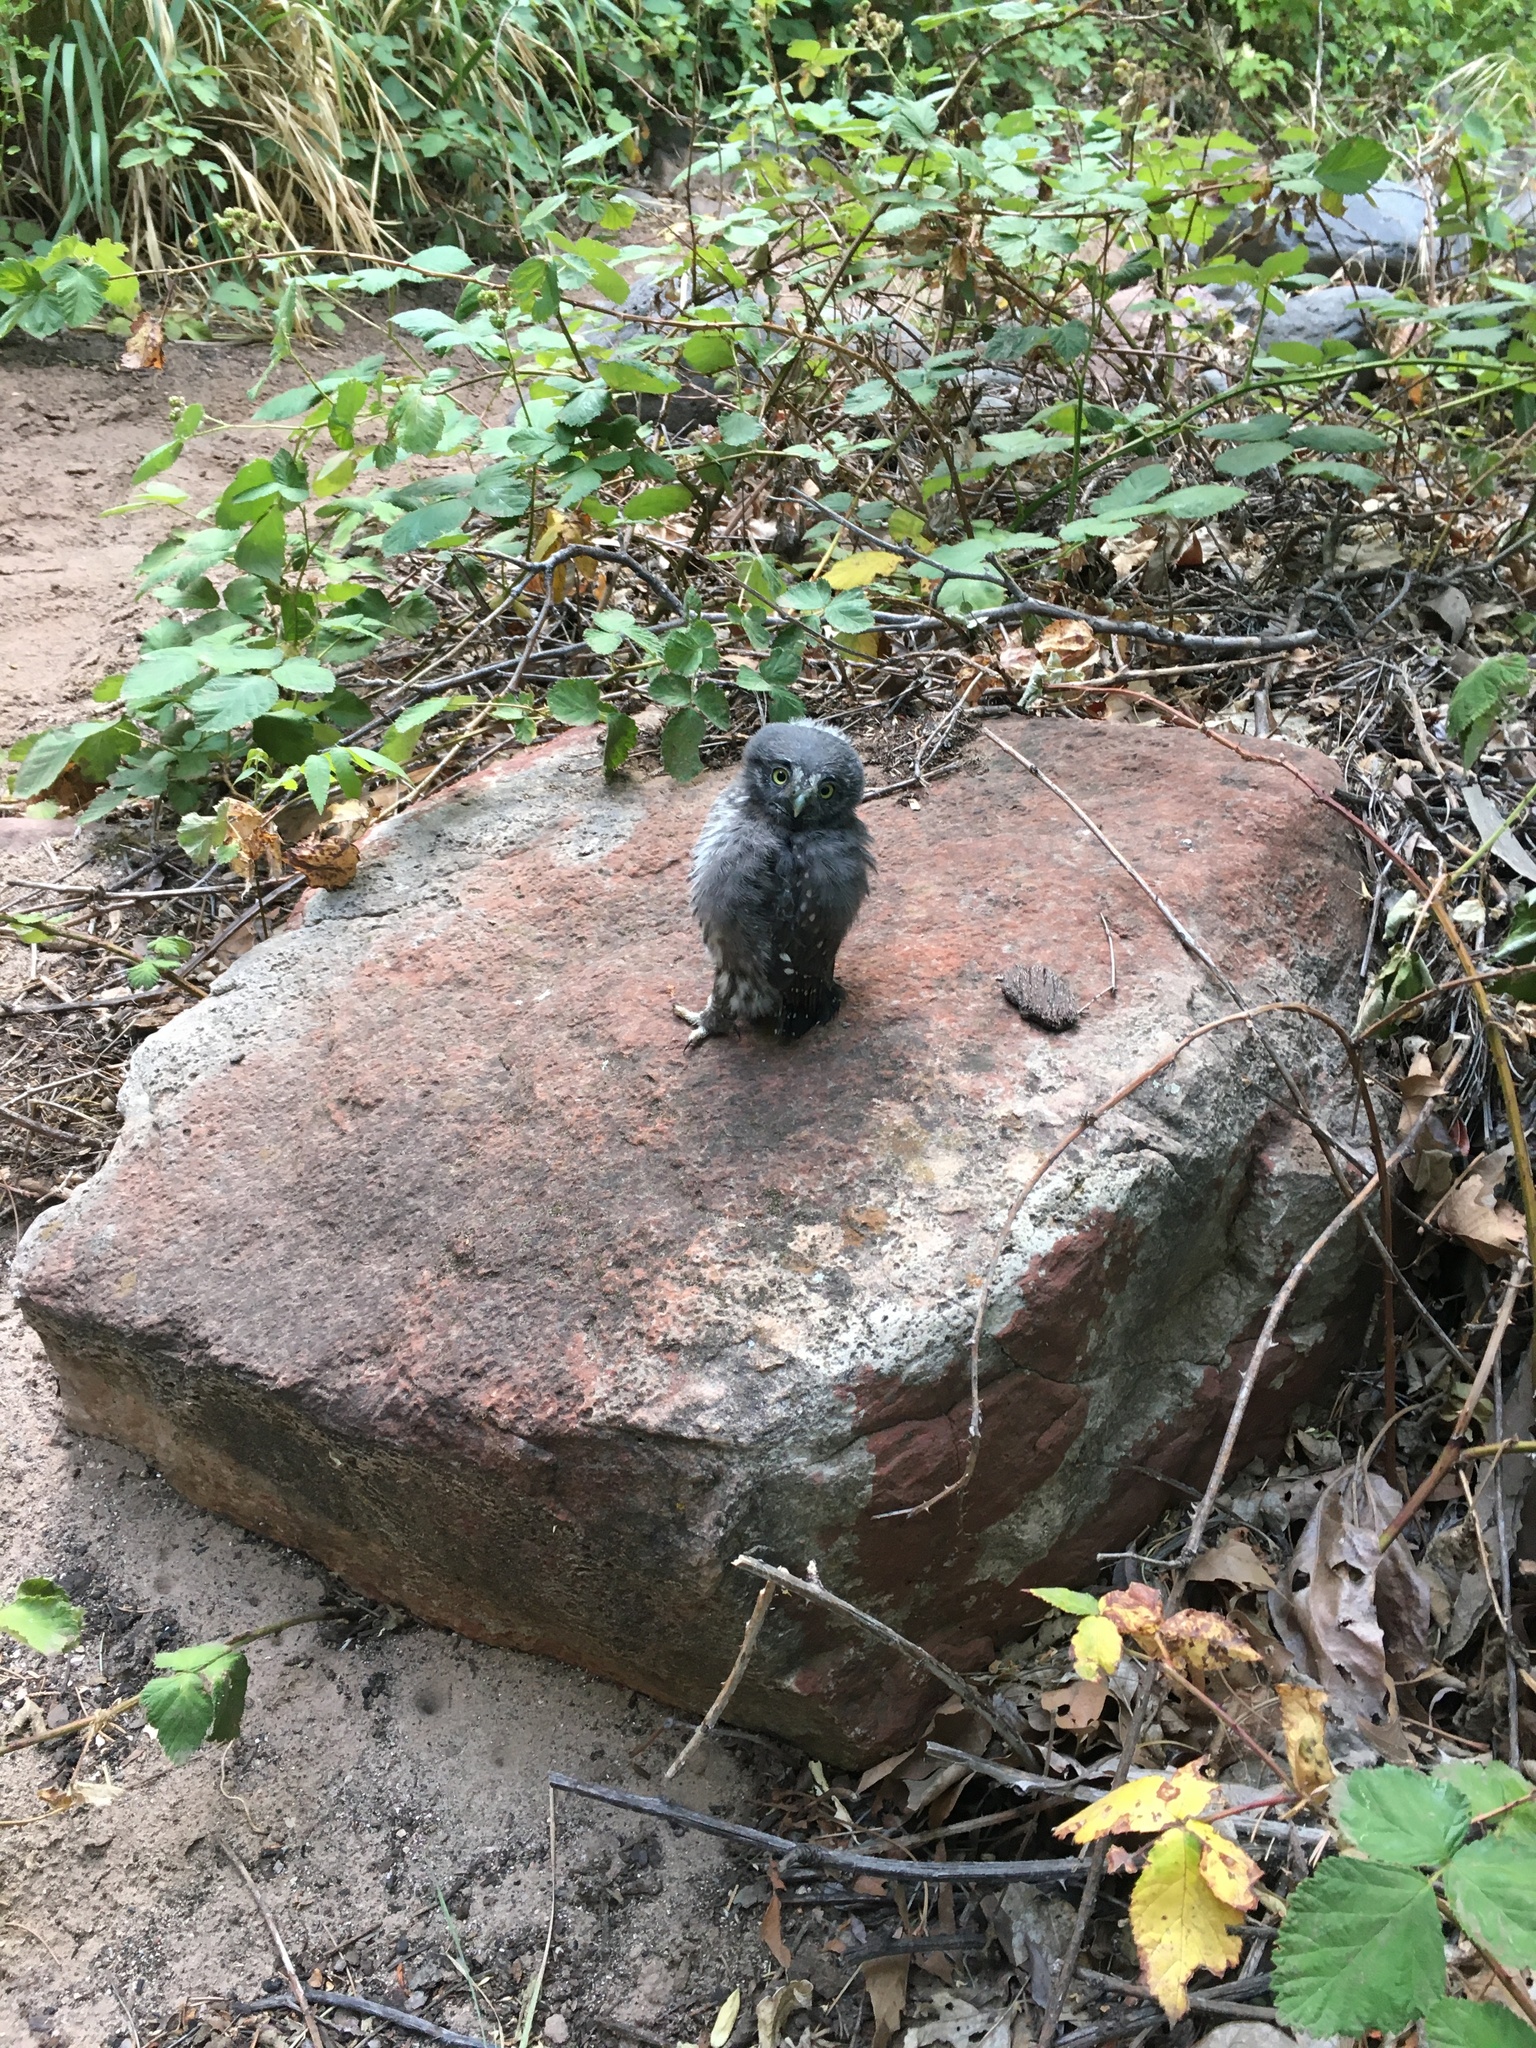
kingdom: Animalia
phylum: Chordata
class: Aves
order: Strigiformes
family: Strigidae
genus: Glaucidium
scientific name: Glaucidium gnoma
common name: Northern pygmy-owl
